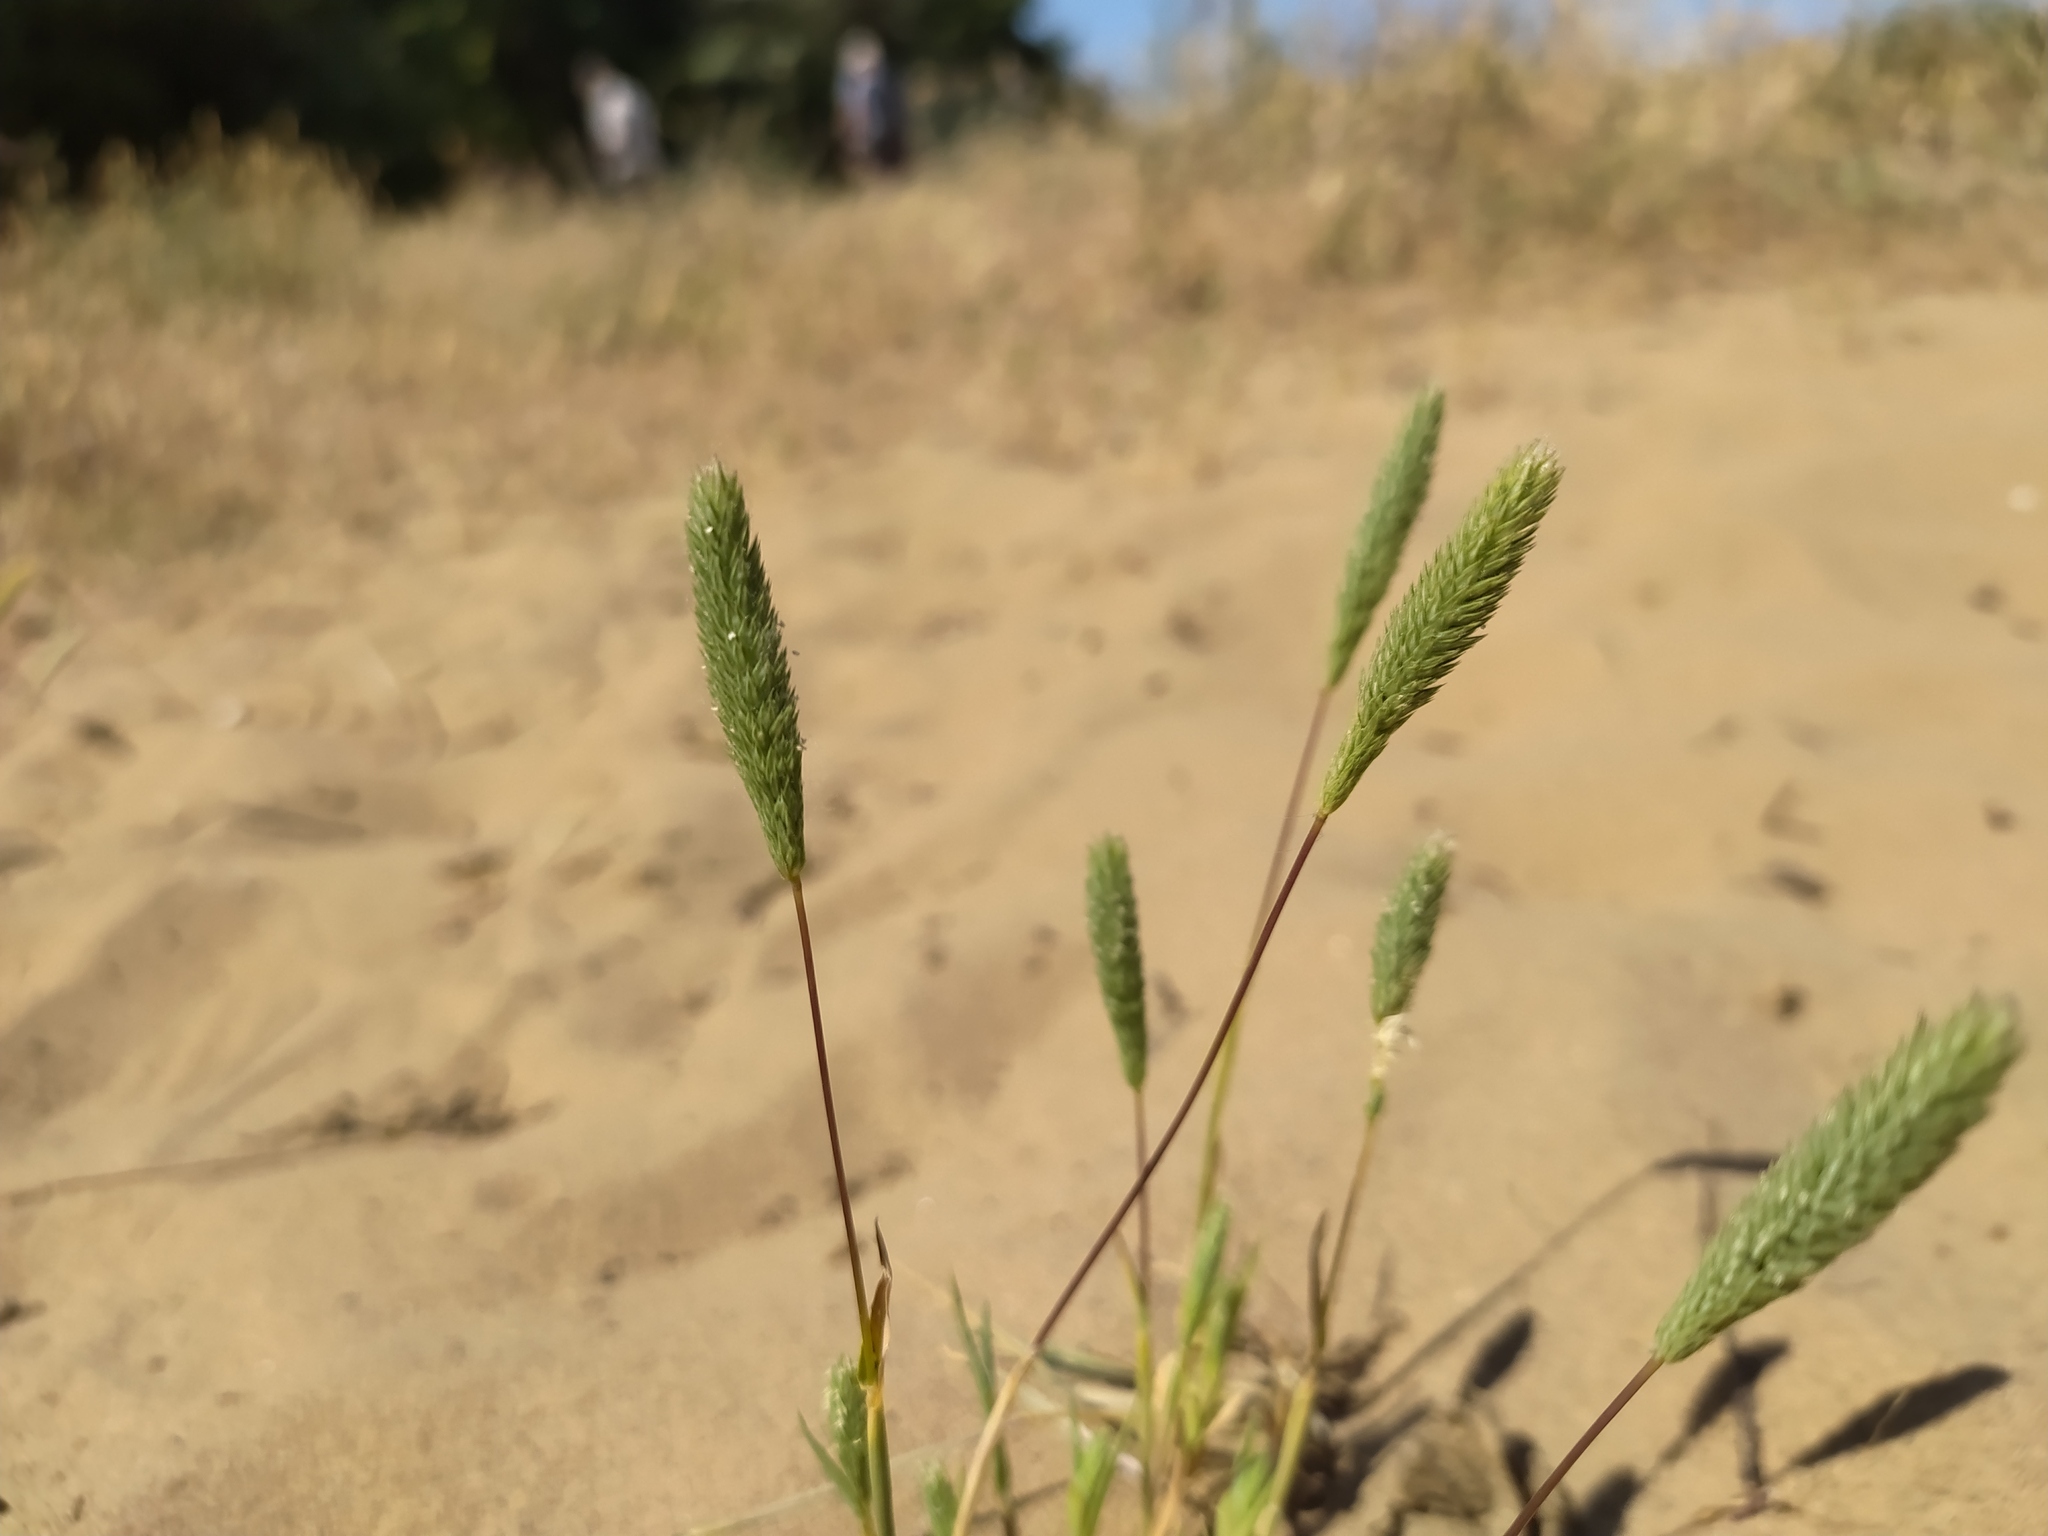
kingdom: Plantae
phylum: Tracheophyta
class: Liliopsida
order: Poales
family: Poaceae
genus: Phleum
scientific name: Phleum arenarium
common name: Sand cat's-tail
